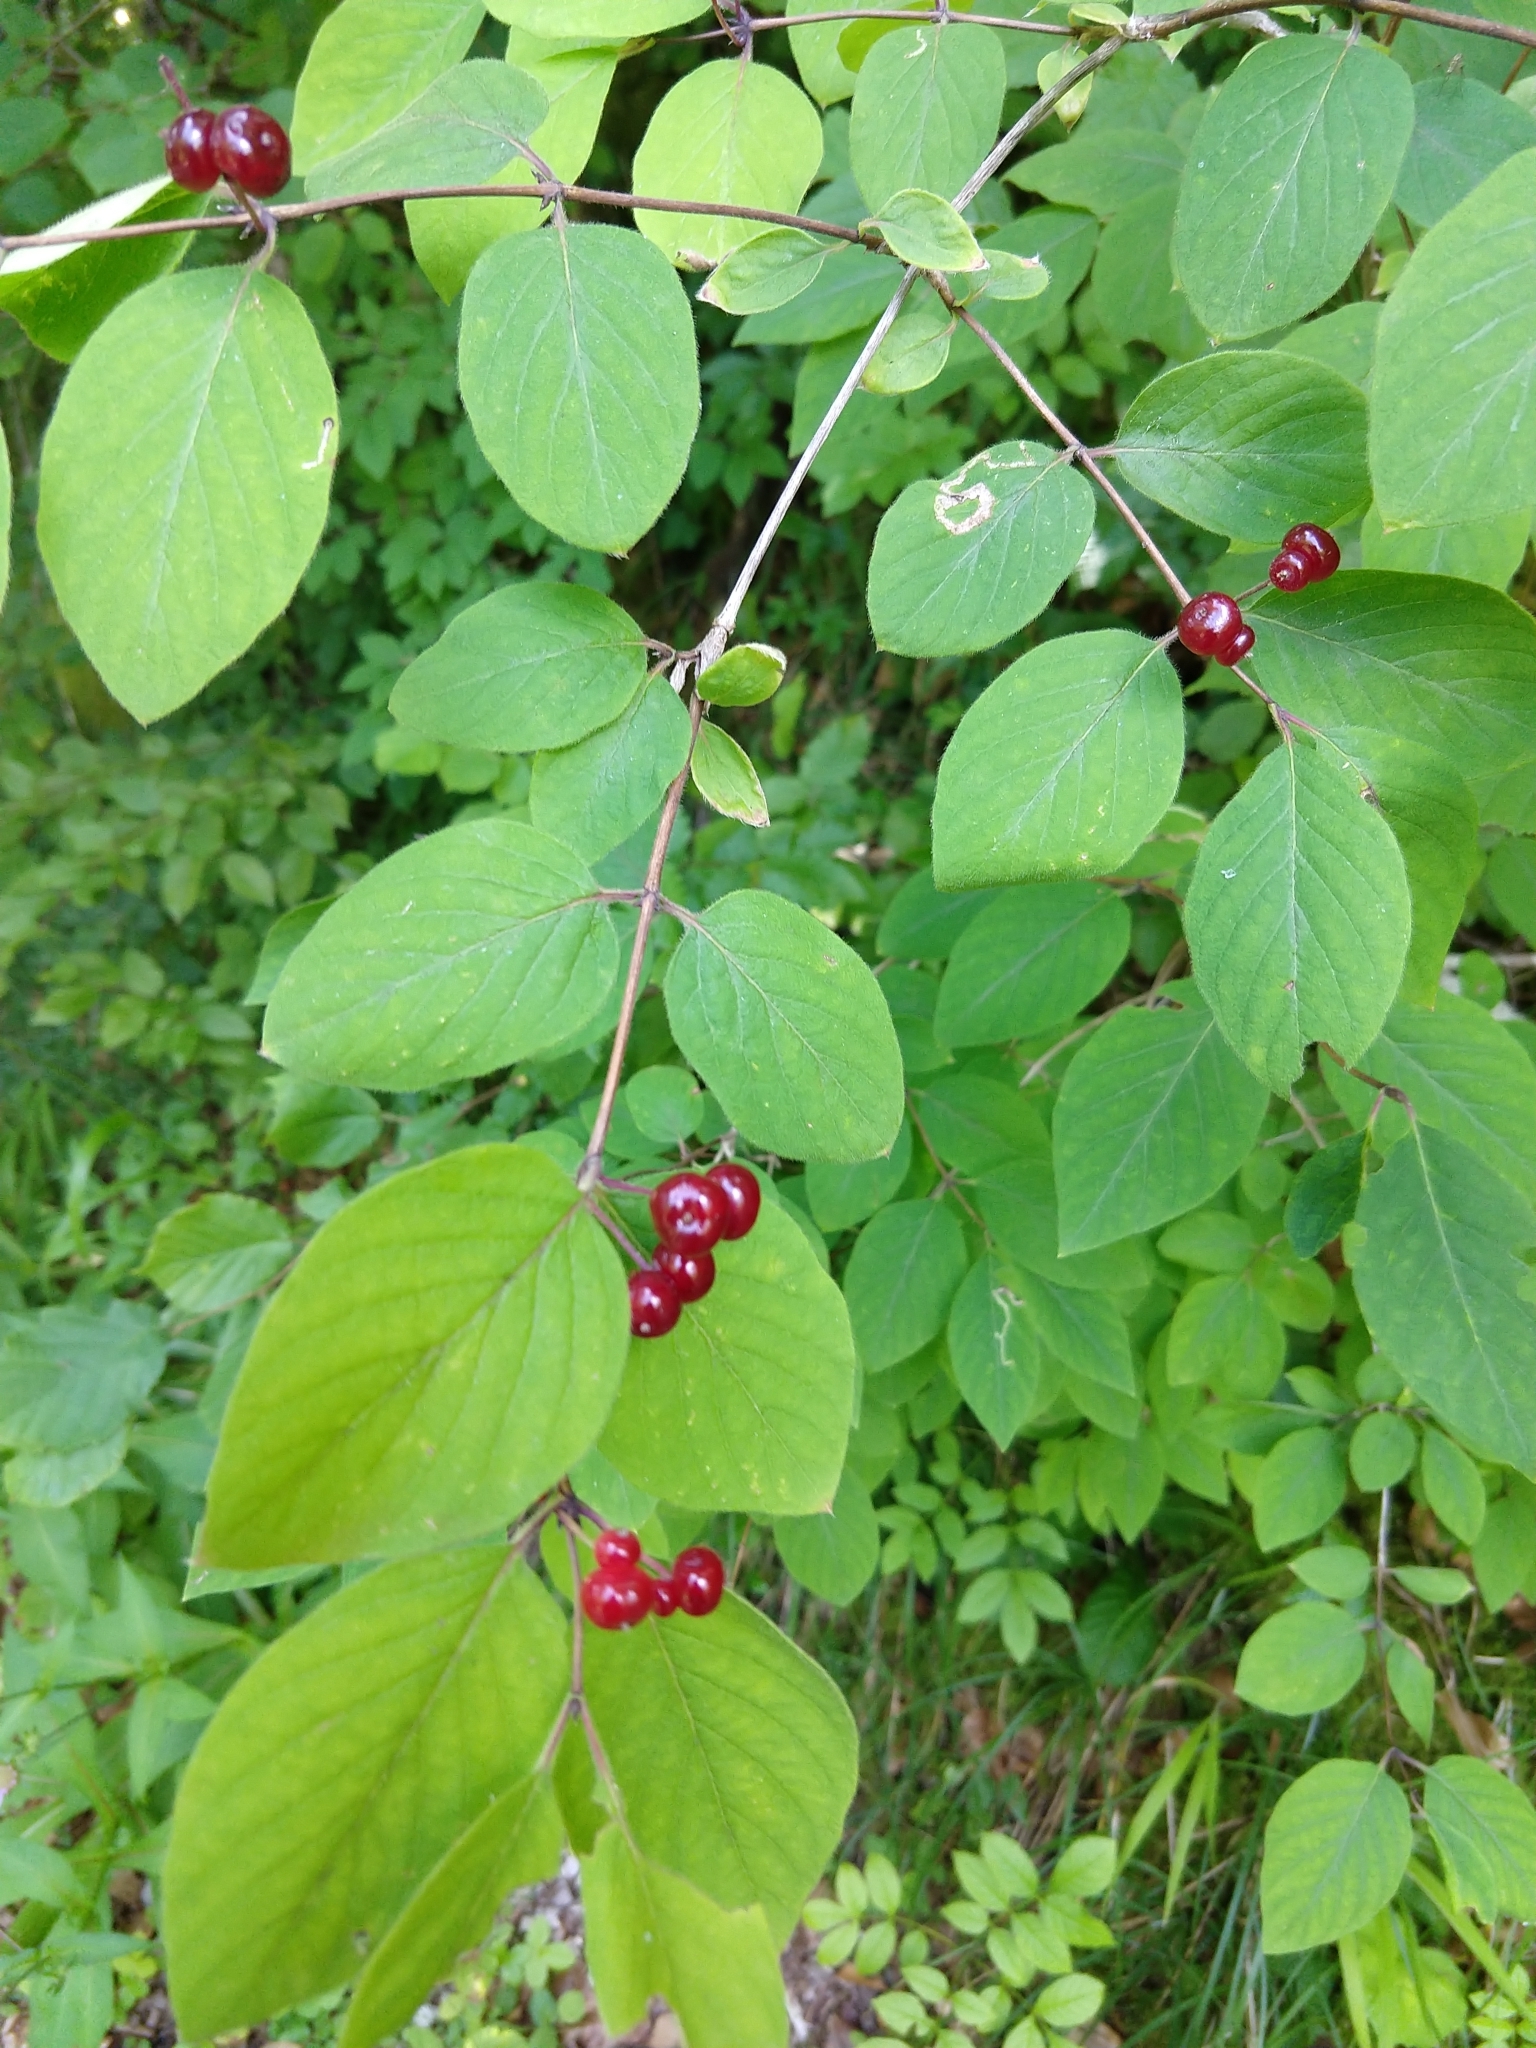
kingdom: Plantae
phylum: Tracheophyta
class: Magnoliopsida
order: Dipsacales
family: Caprifoliaceae
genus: Lonicera
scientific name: Lonicera xylosteum
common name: Fly honeysuckle
